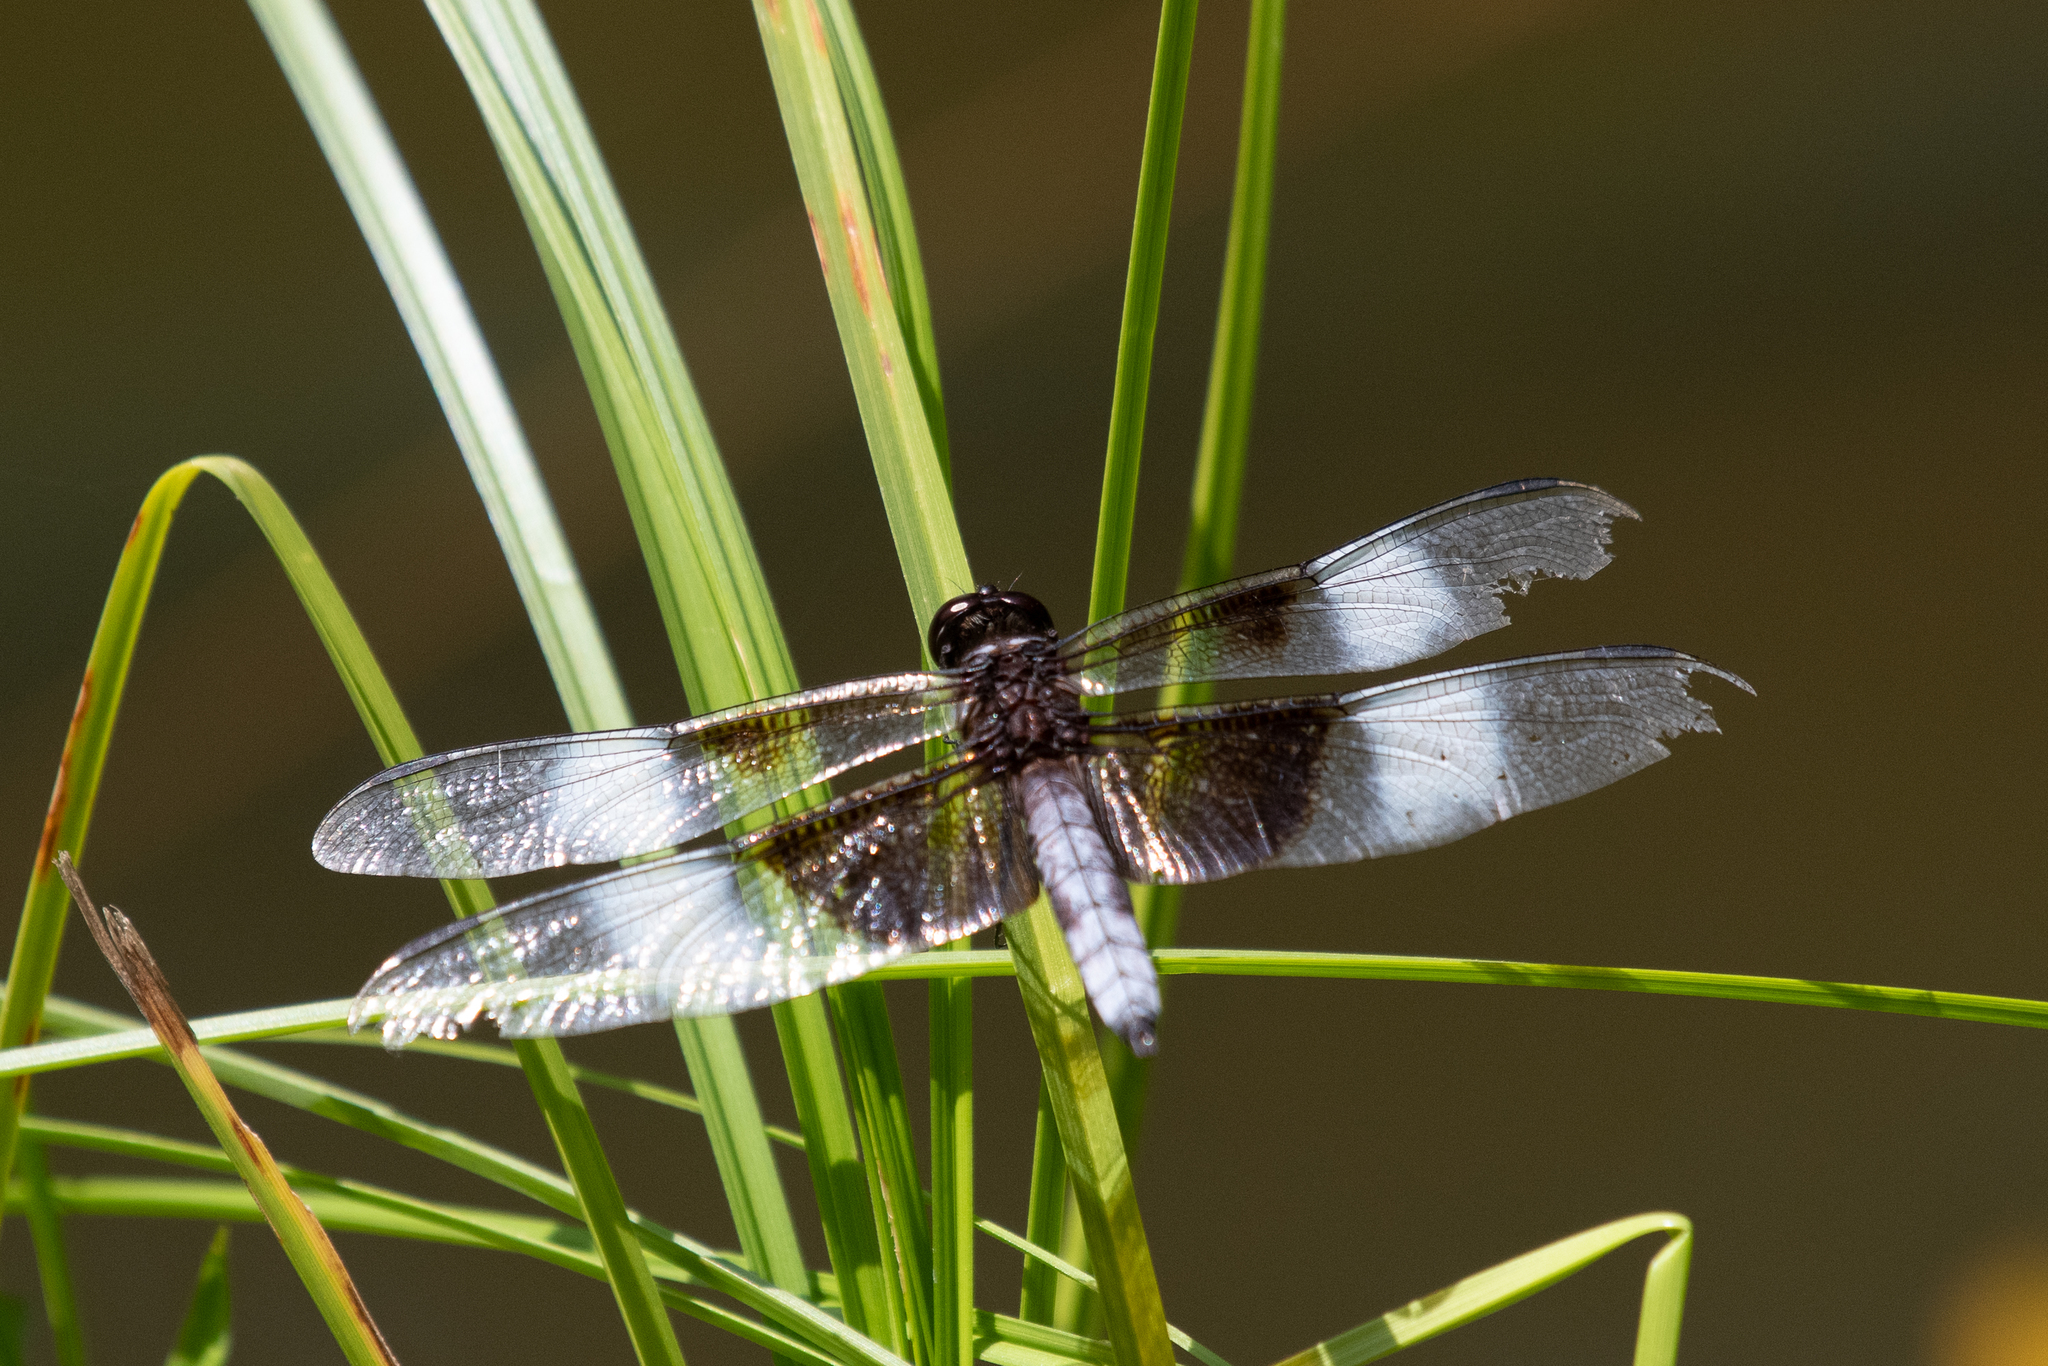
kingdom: Animalia
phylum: Arthropoda
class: Insecta
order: Odonata
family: Libellulidae
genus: Libellula
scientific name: Libellula luctuosa
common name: Widow skimmer
